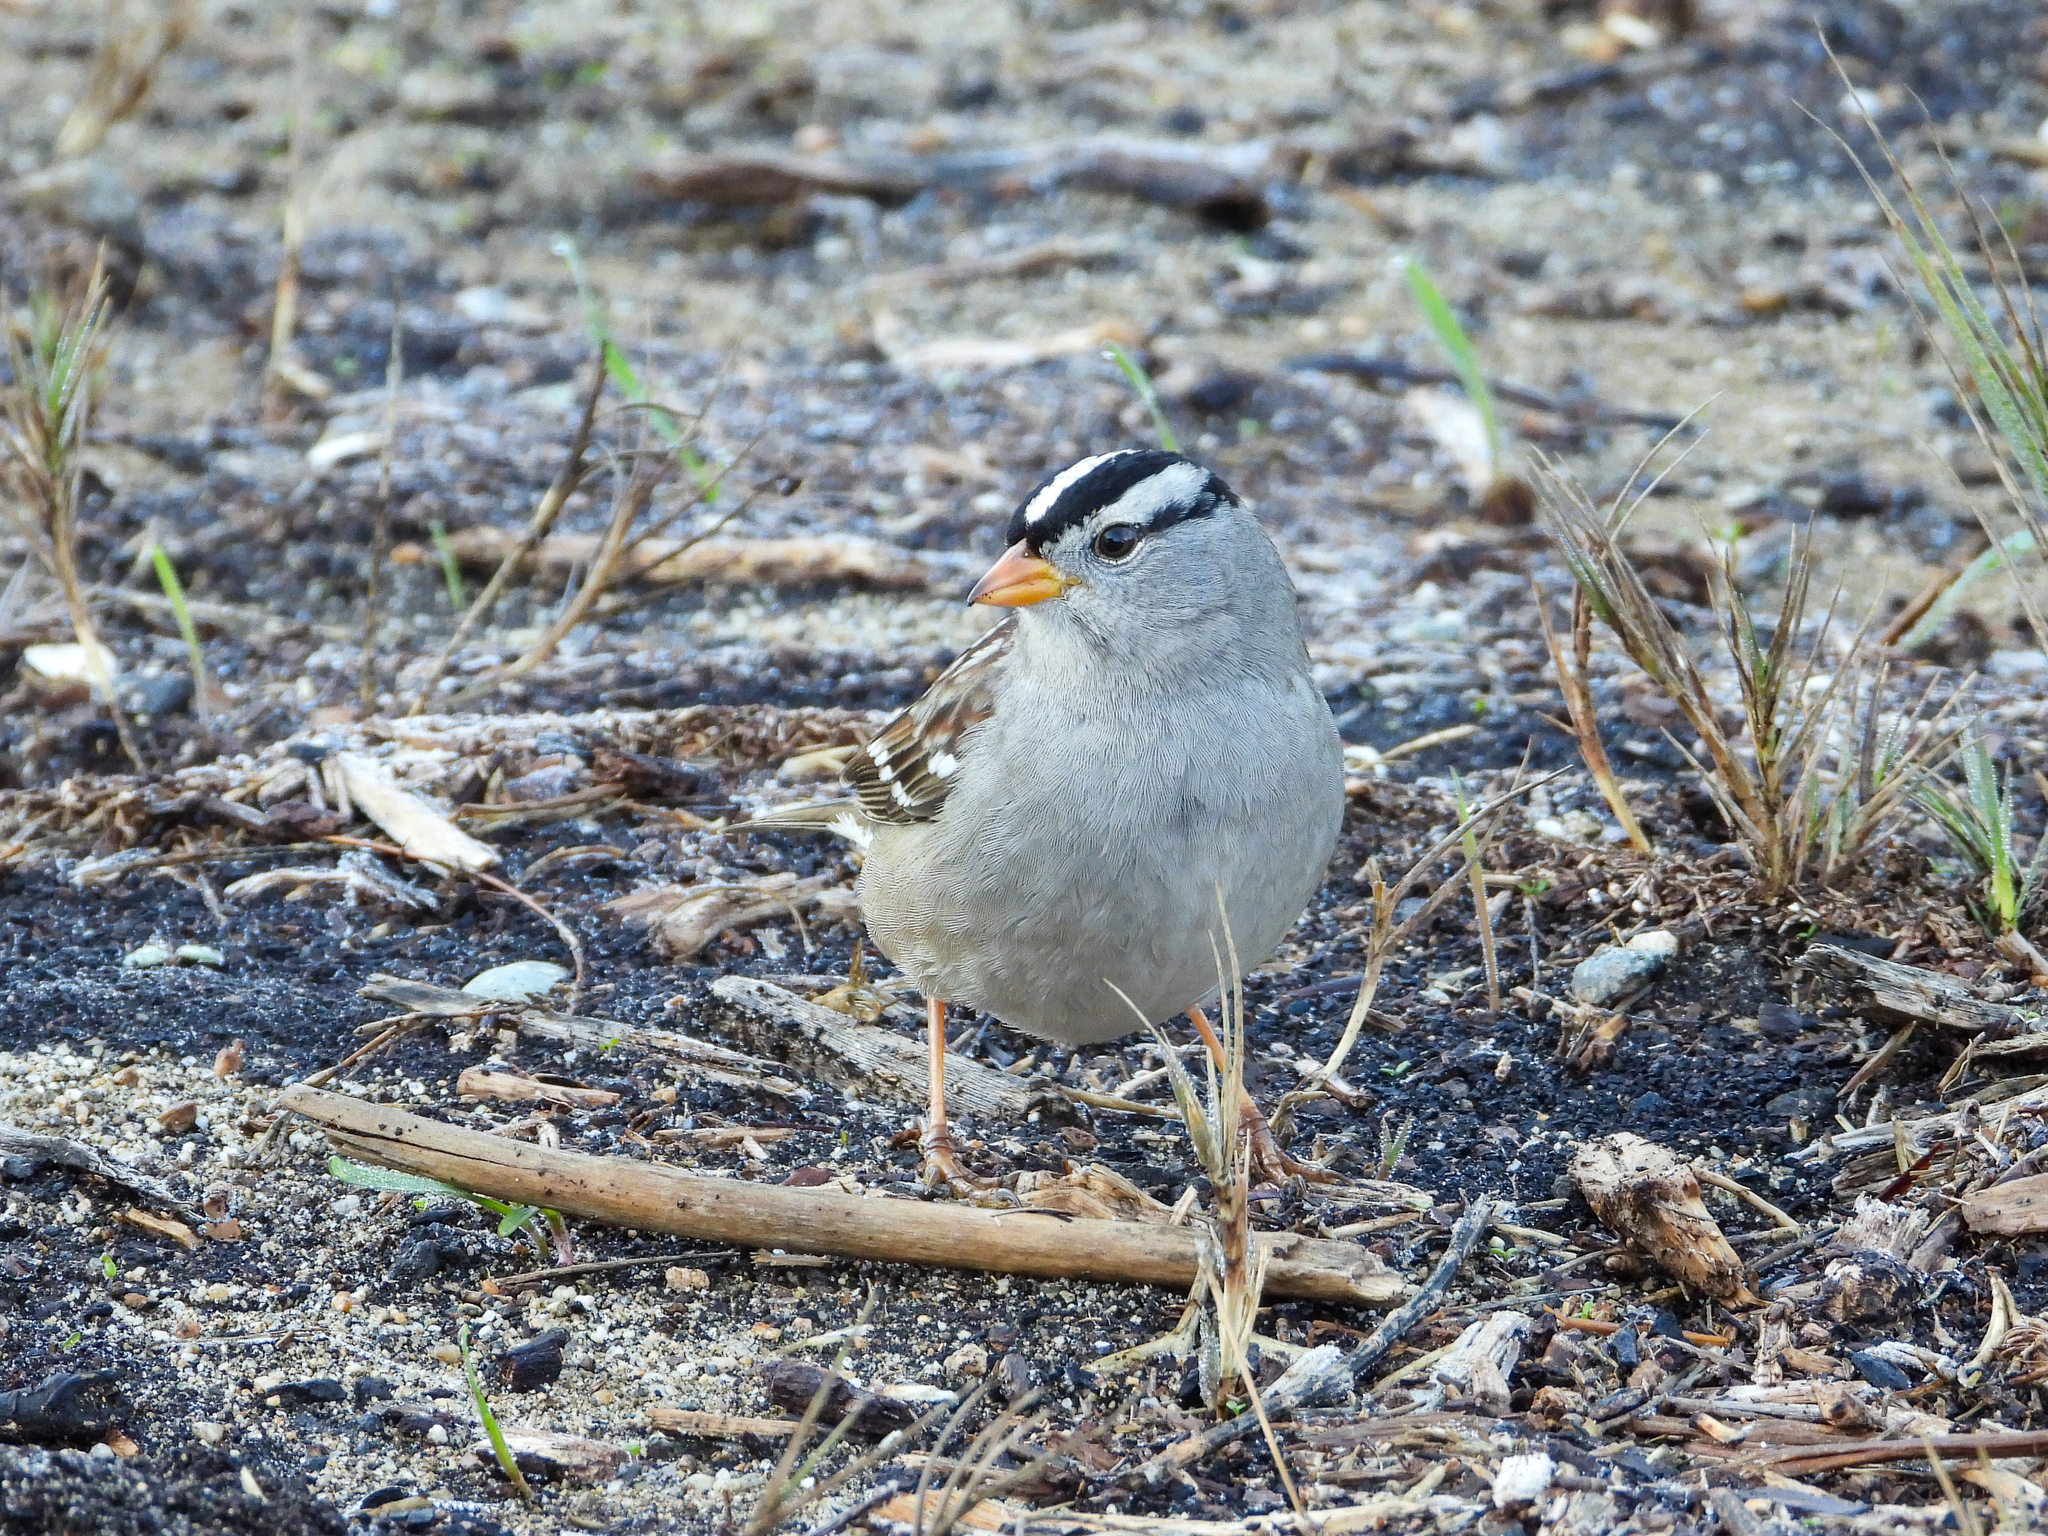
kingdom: Animalia
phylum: Chordata
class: Aves
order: Passeriformes
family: Passerellidae
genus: Zonotrichia
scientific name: Zonotrichia leucophrys
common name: White-crowned sparrow
